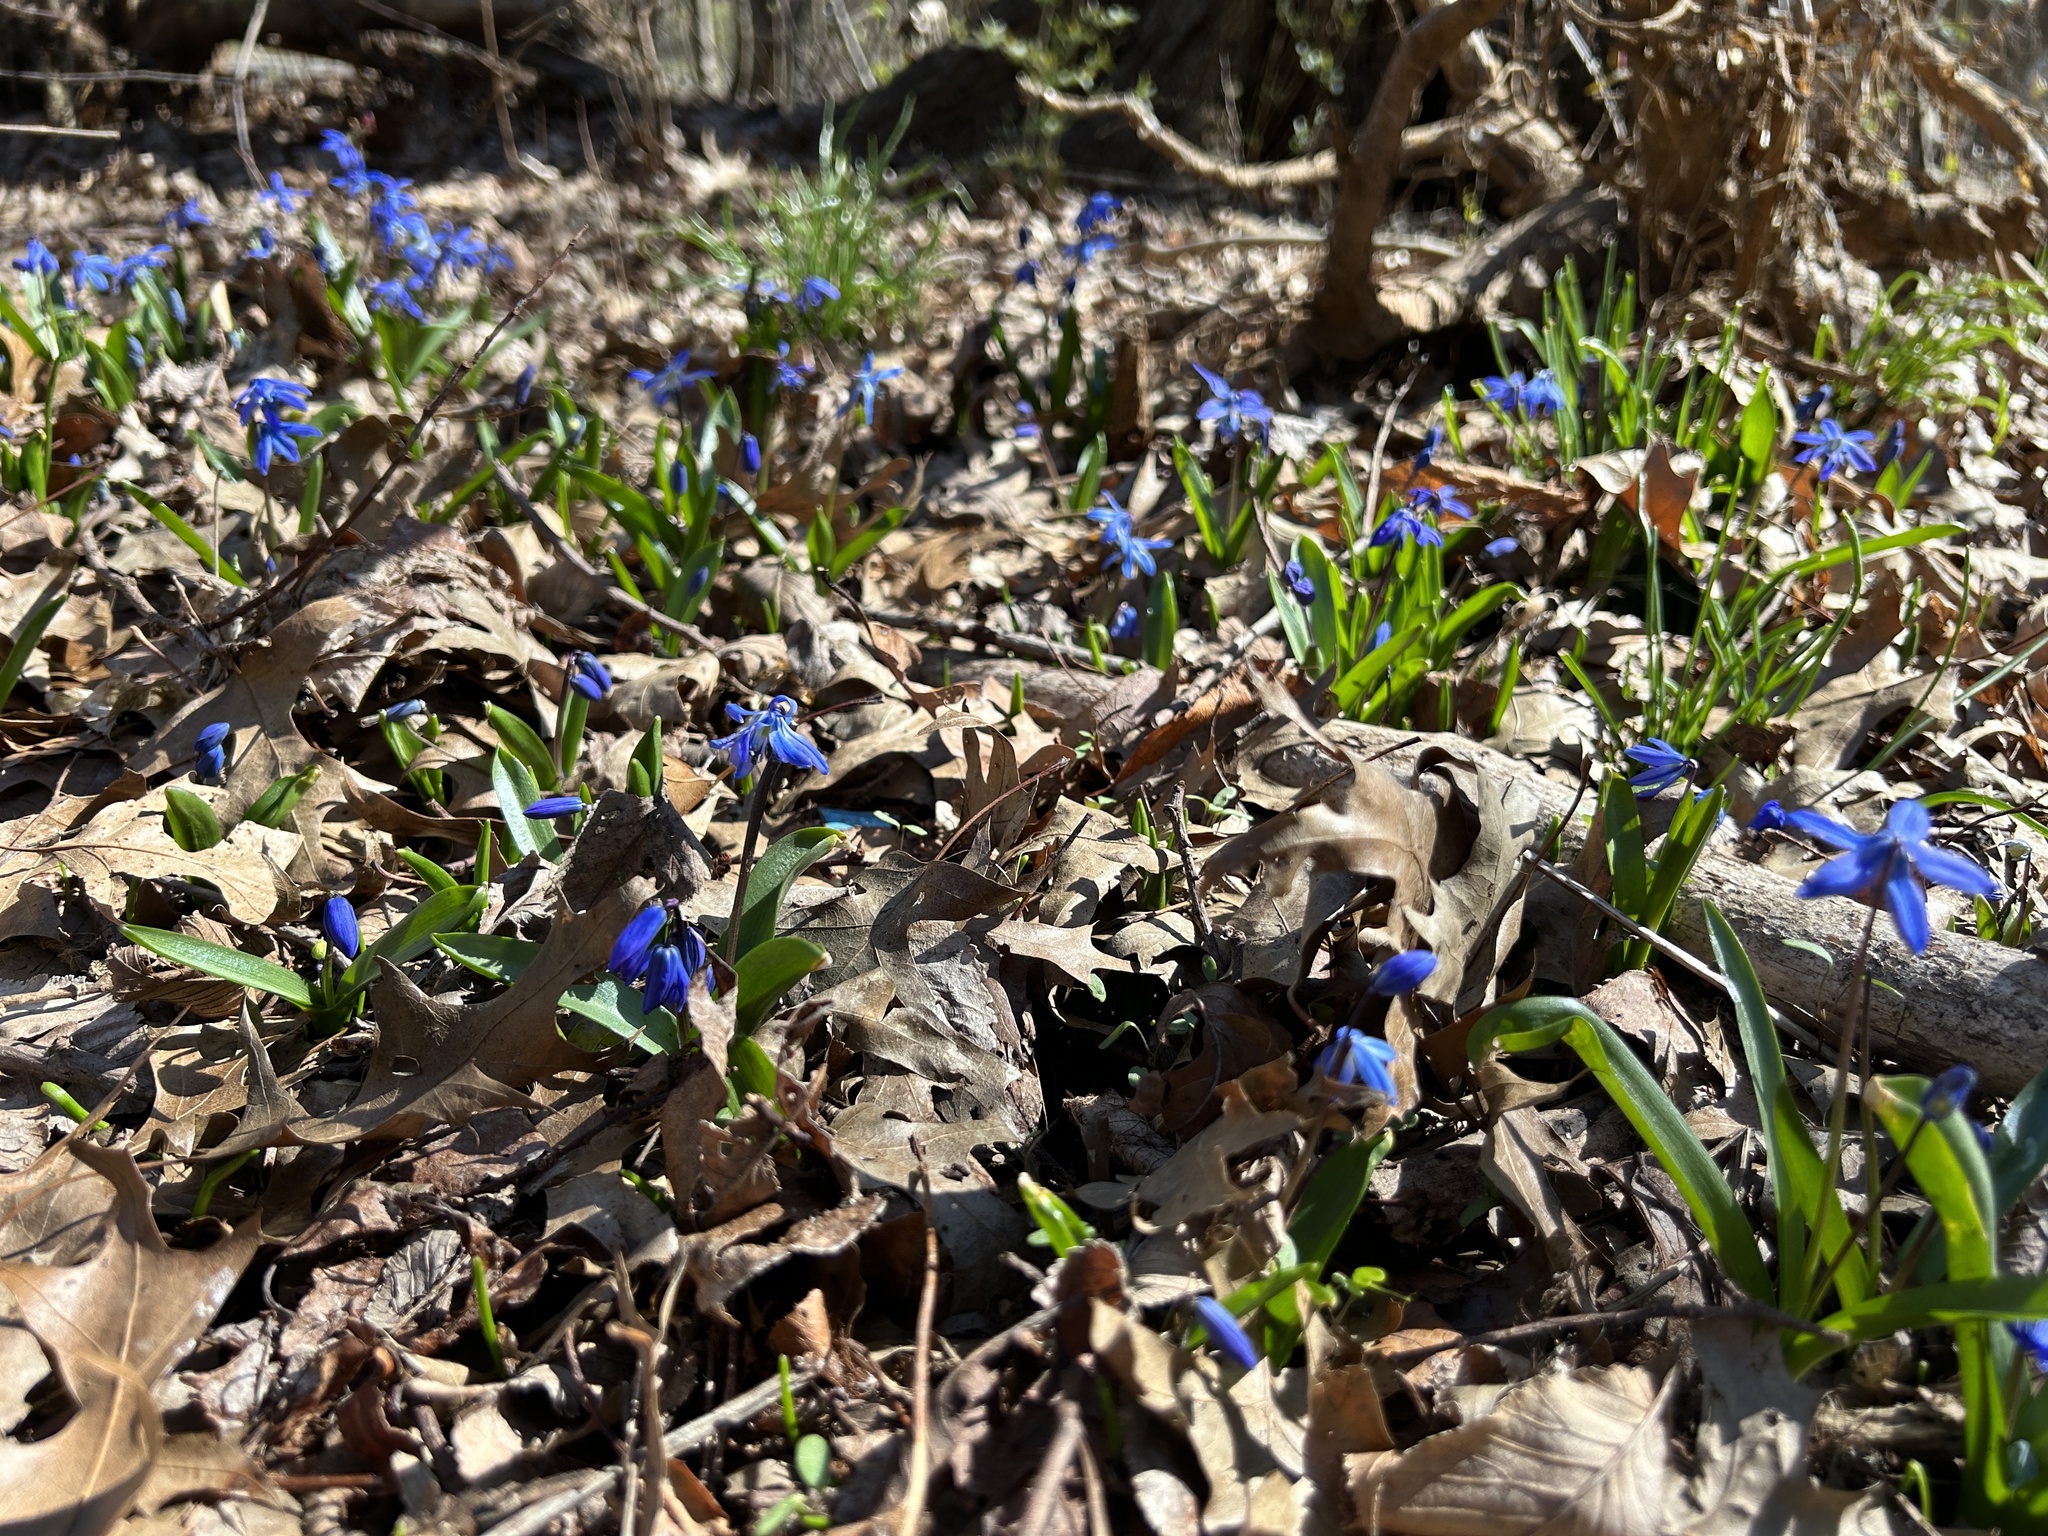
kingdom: Plantae
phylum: Tracheophyta
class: Liliopsida
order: Asparagales
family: Asparagaceae
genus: Scilla
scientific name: Scilla siberica
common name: Siberian squill
